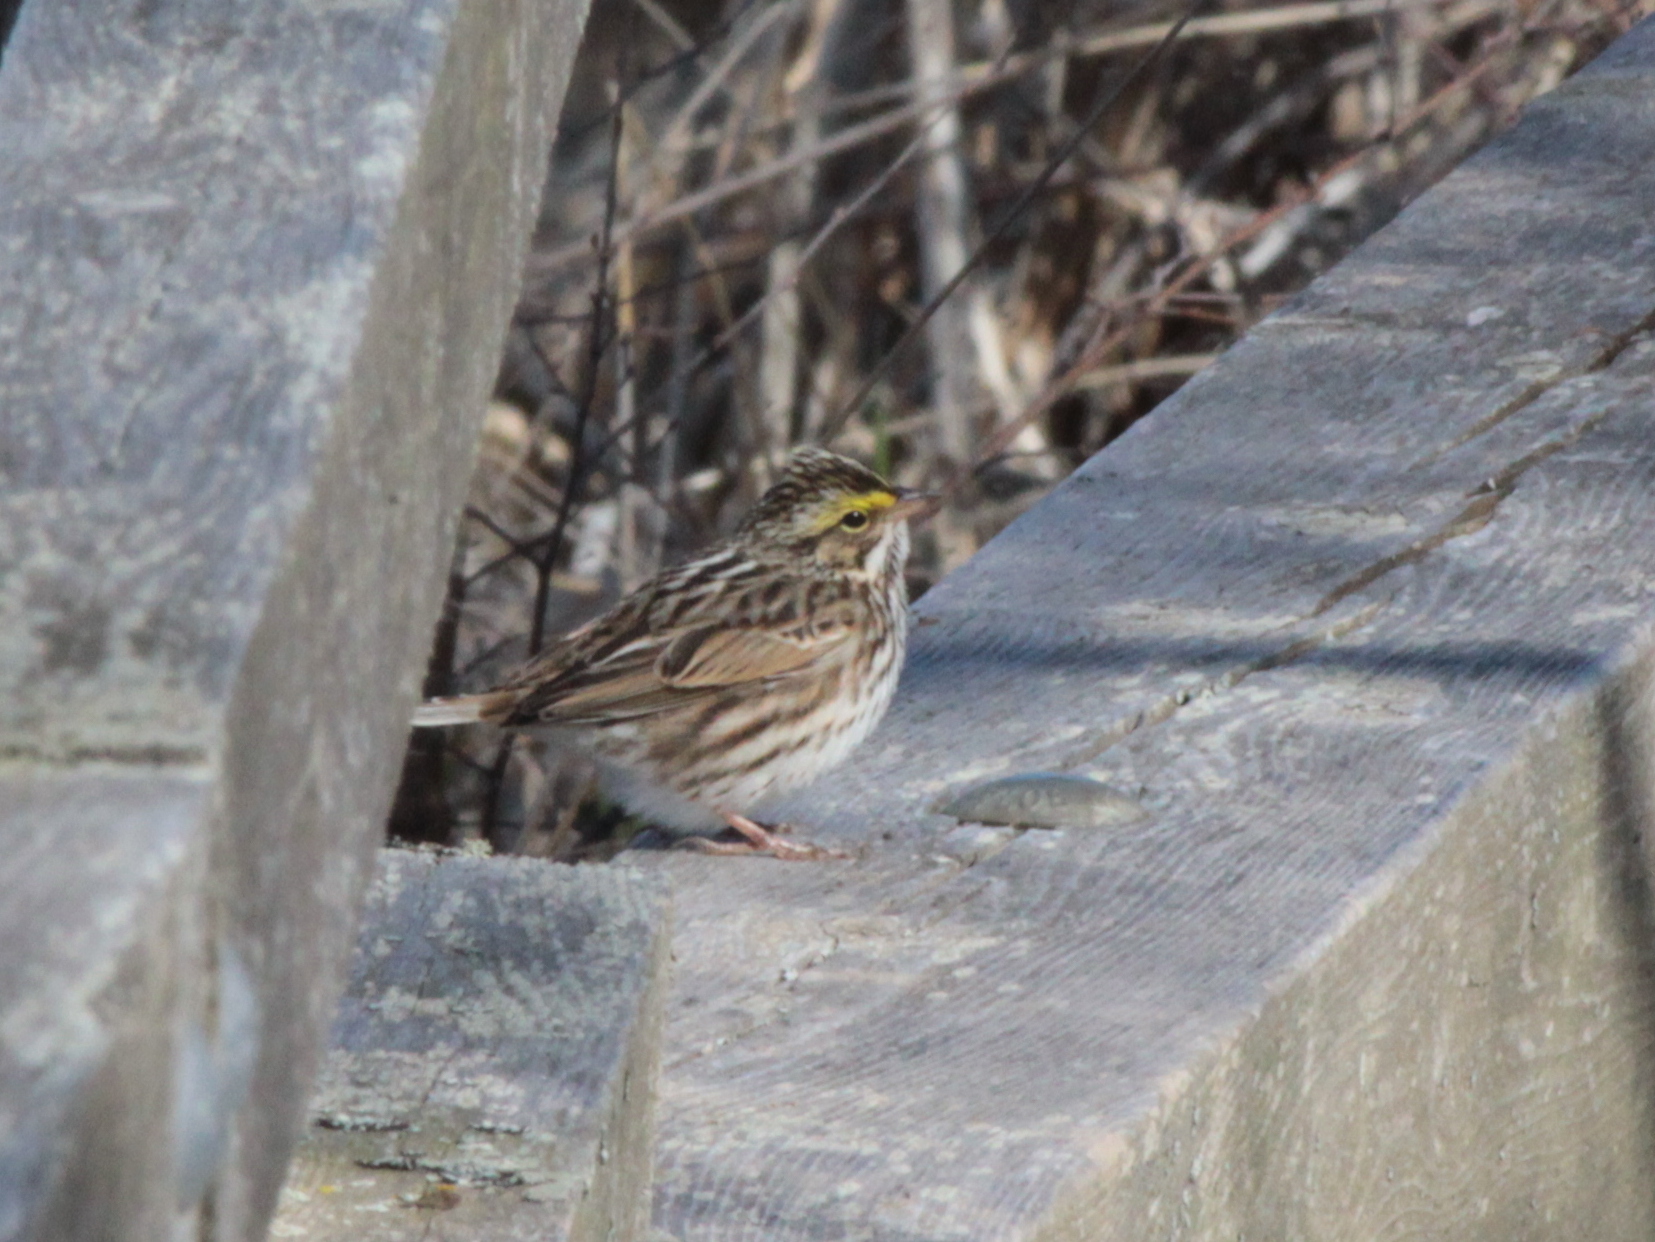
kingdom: Animalia
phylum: Chordata
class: Aves
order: Passeriformes
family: Passerellidae
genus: Passerculus
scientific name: Passerculus sandwichensis
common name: Savannah sparrow
